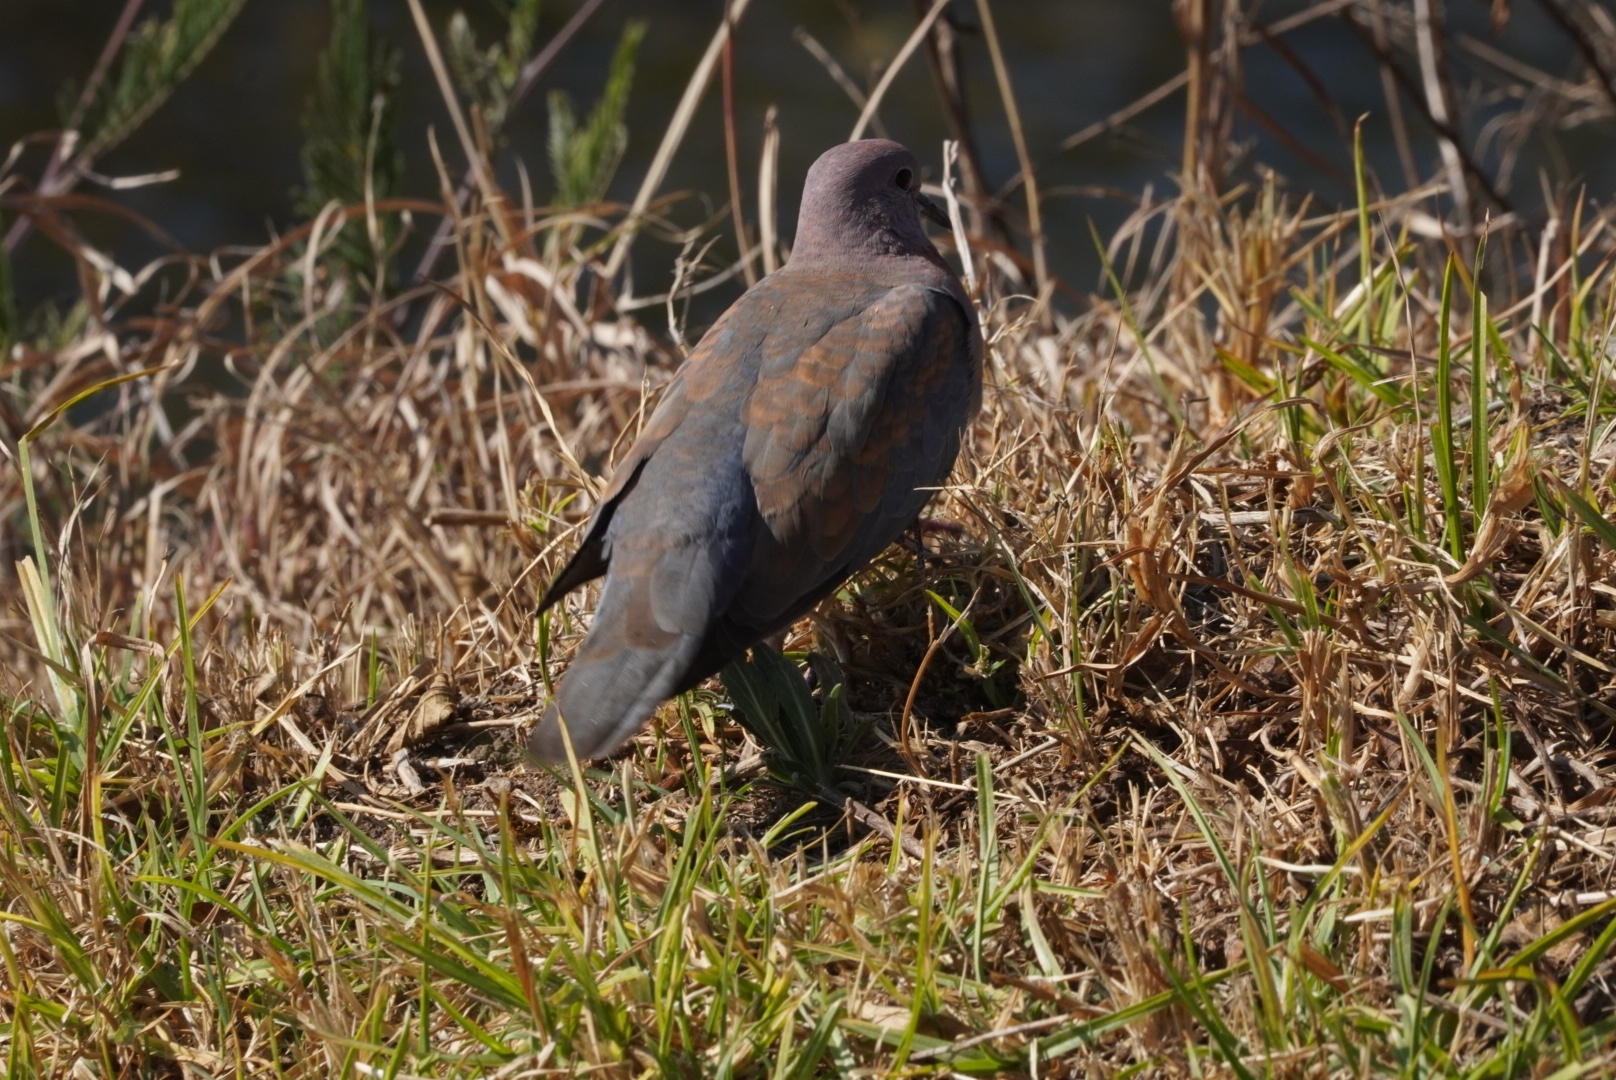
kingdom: Animalia
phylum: Chordata
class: Aves
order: Columbiformes
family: Columbidae
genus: Spilopelia
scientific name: Spilopelia senegalensis
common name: Laughing dove
